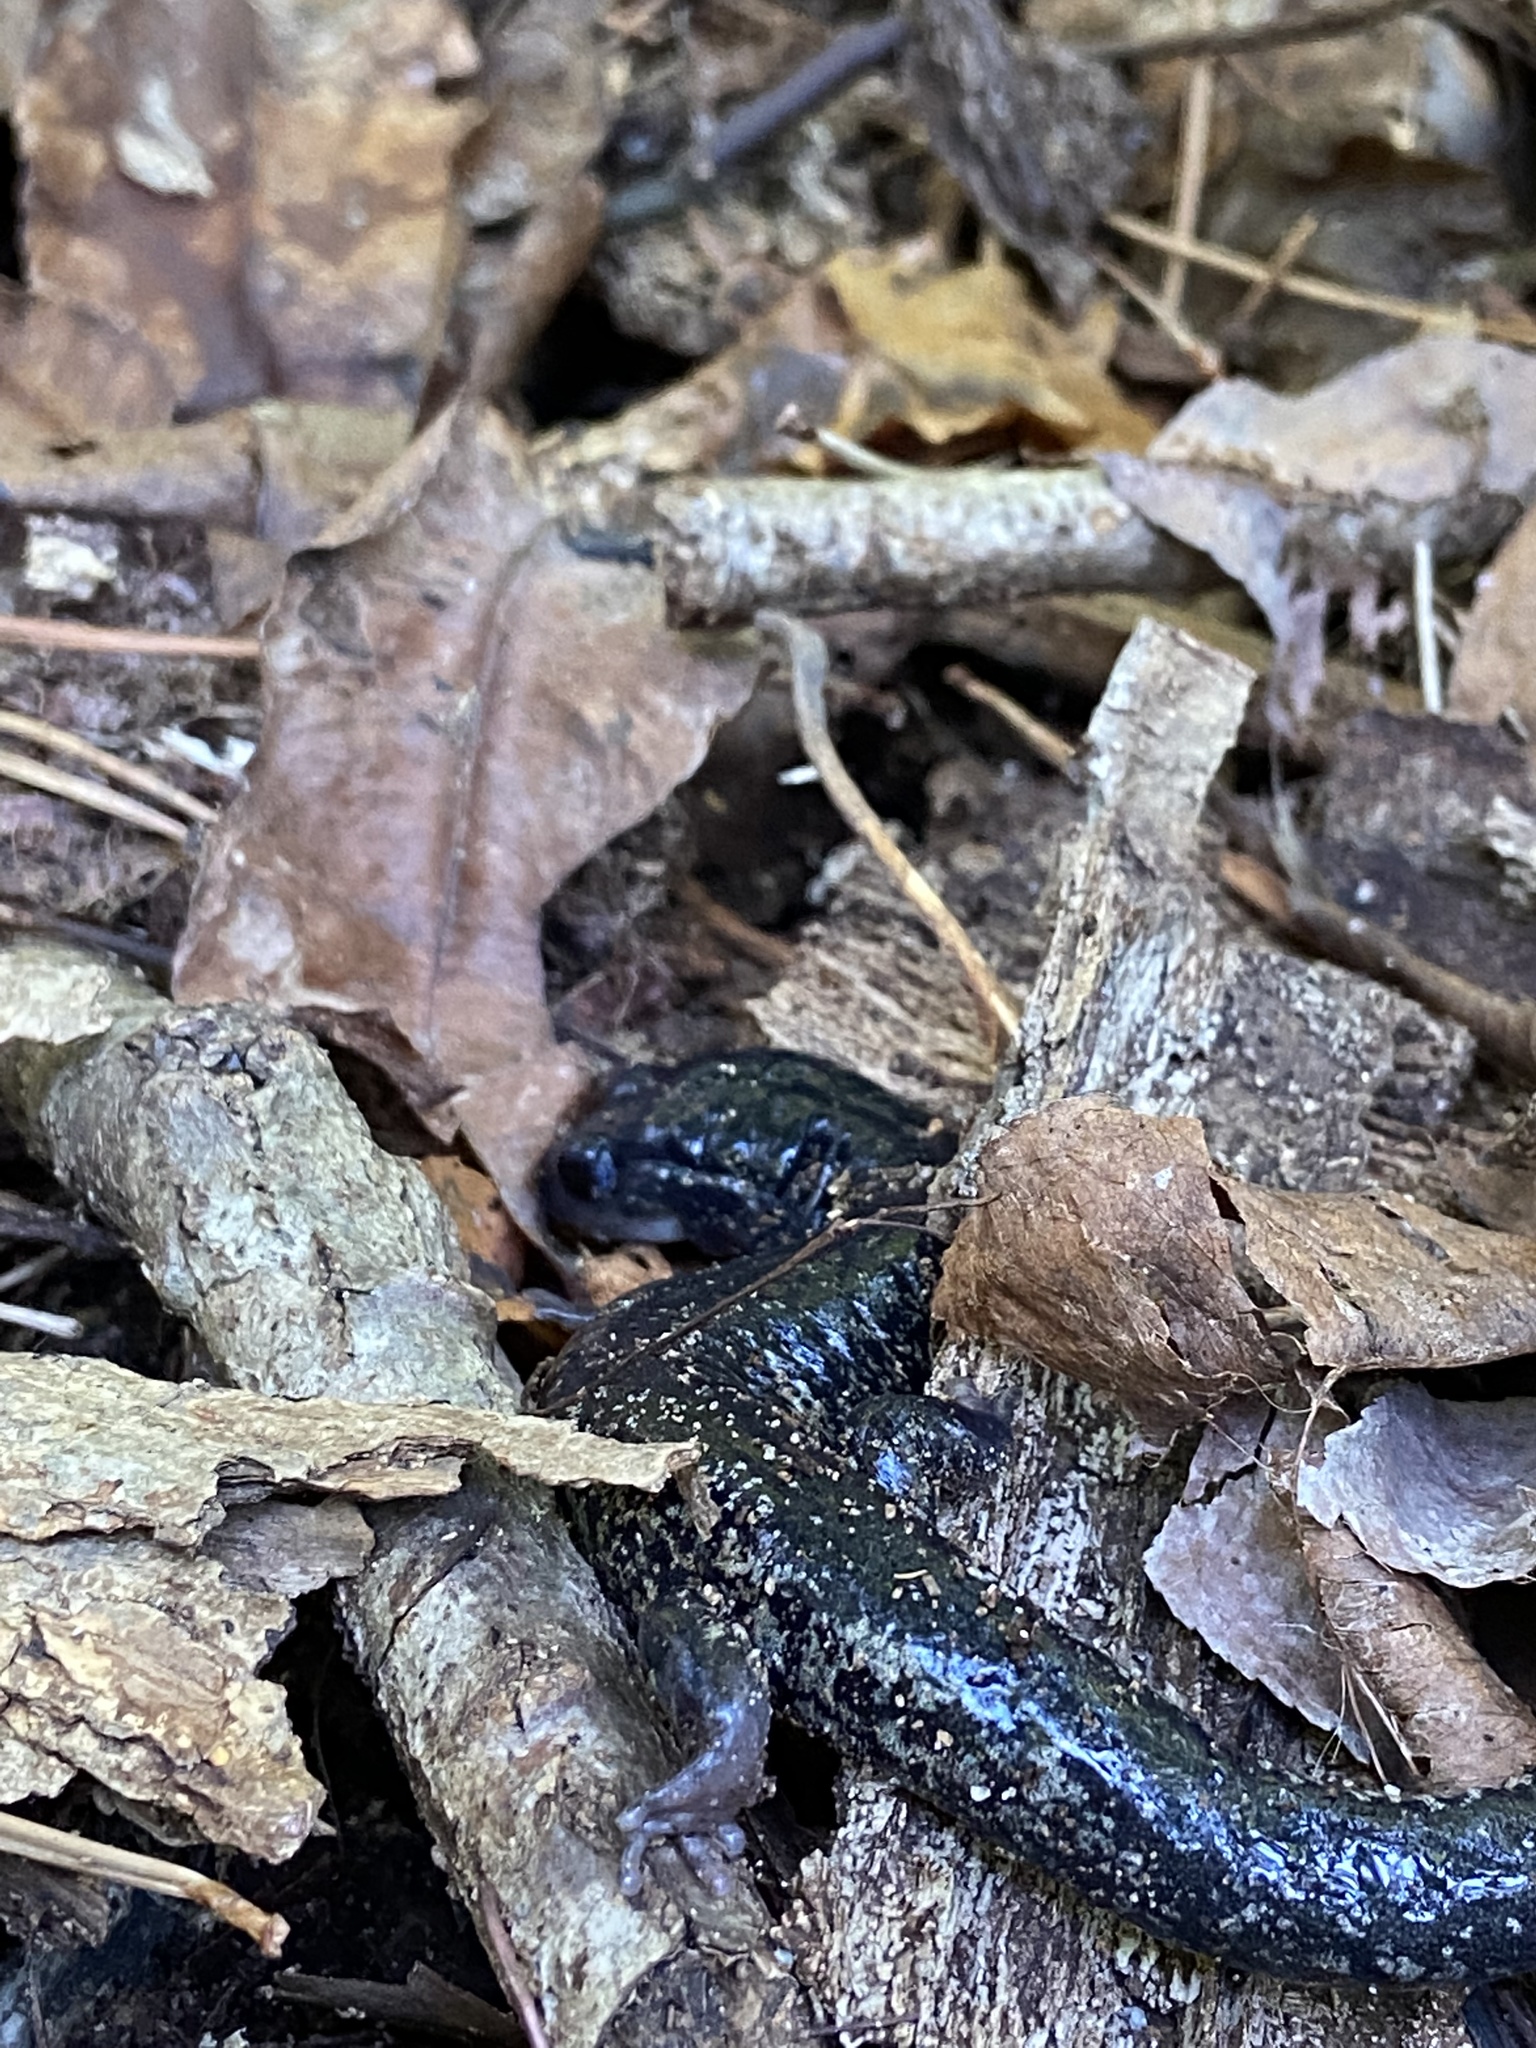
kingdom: Animalia
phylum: Chordata
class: Amphibia
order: Caudata
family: Plethodontidae
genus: Plethodon
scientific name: Plethodon
